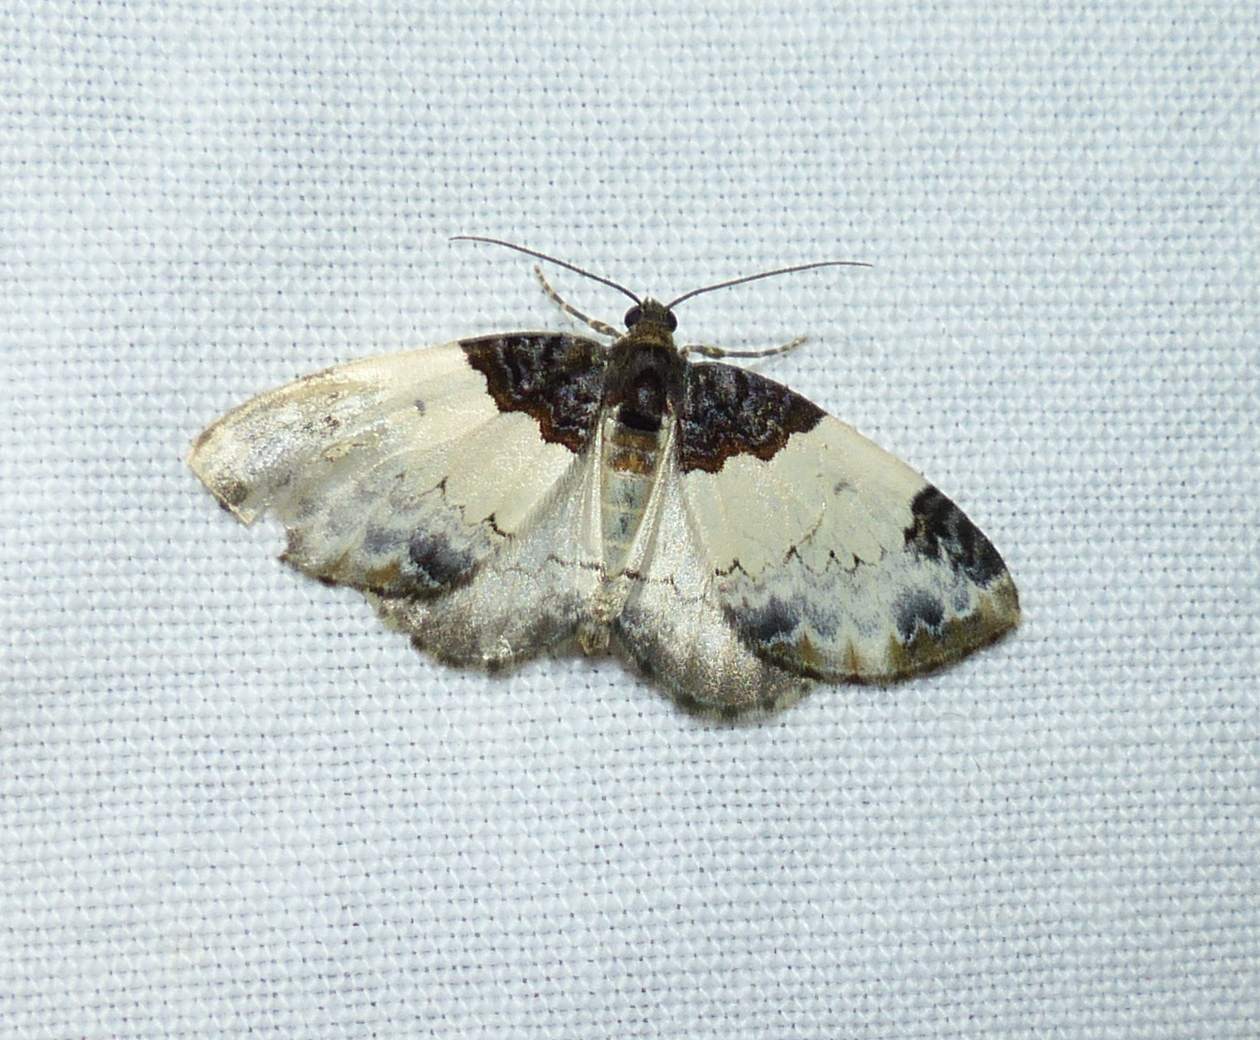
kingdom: Animalia
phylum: Arthropoda
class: Insecta
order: Lepidoptera
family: Geometridae
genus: Mesoleuca
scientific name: Mesoleuca ruficillata
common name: White-ribboned carpet moth
